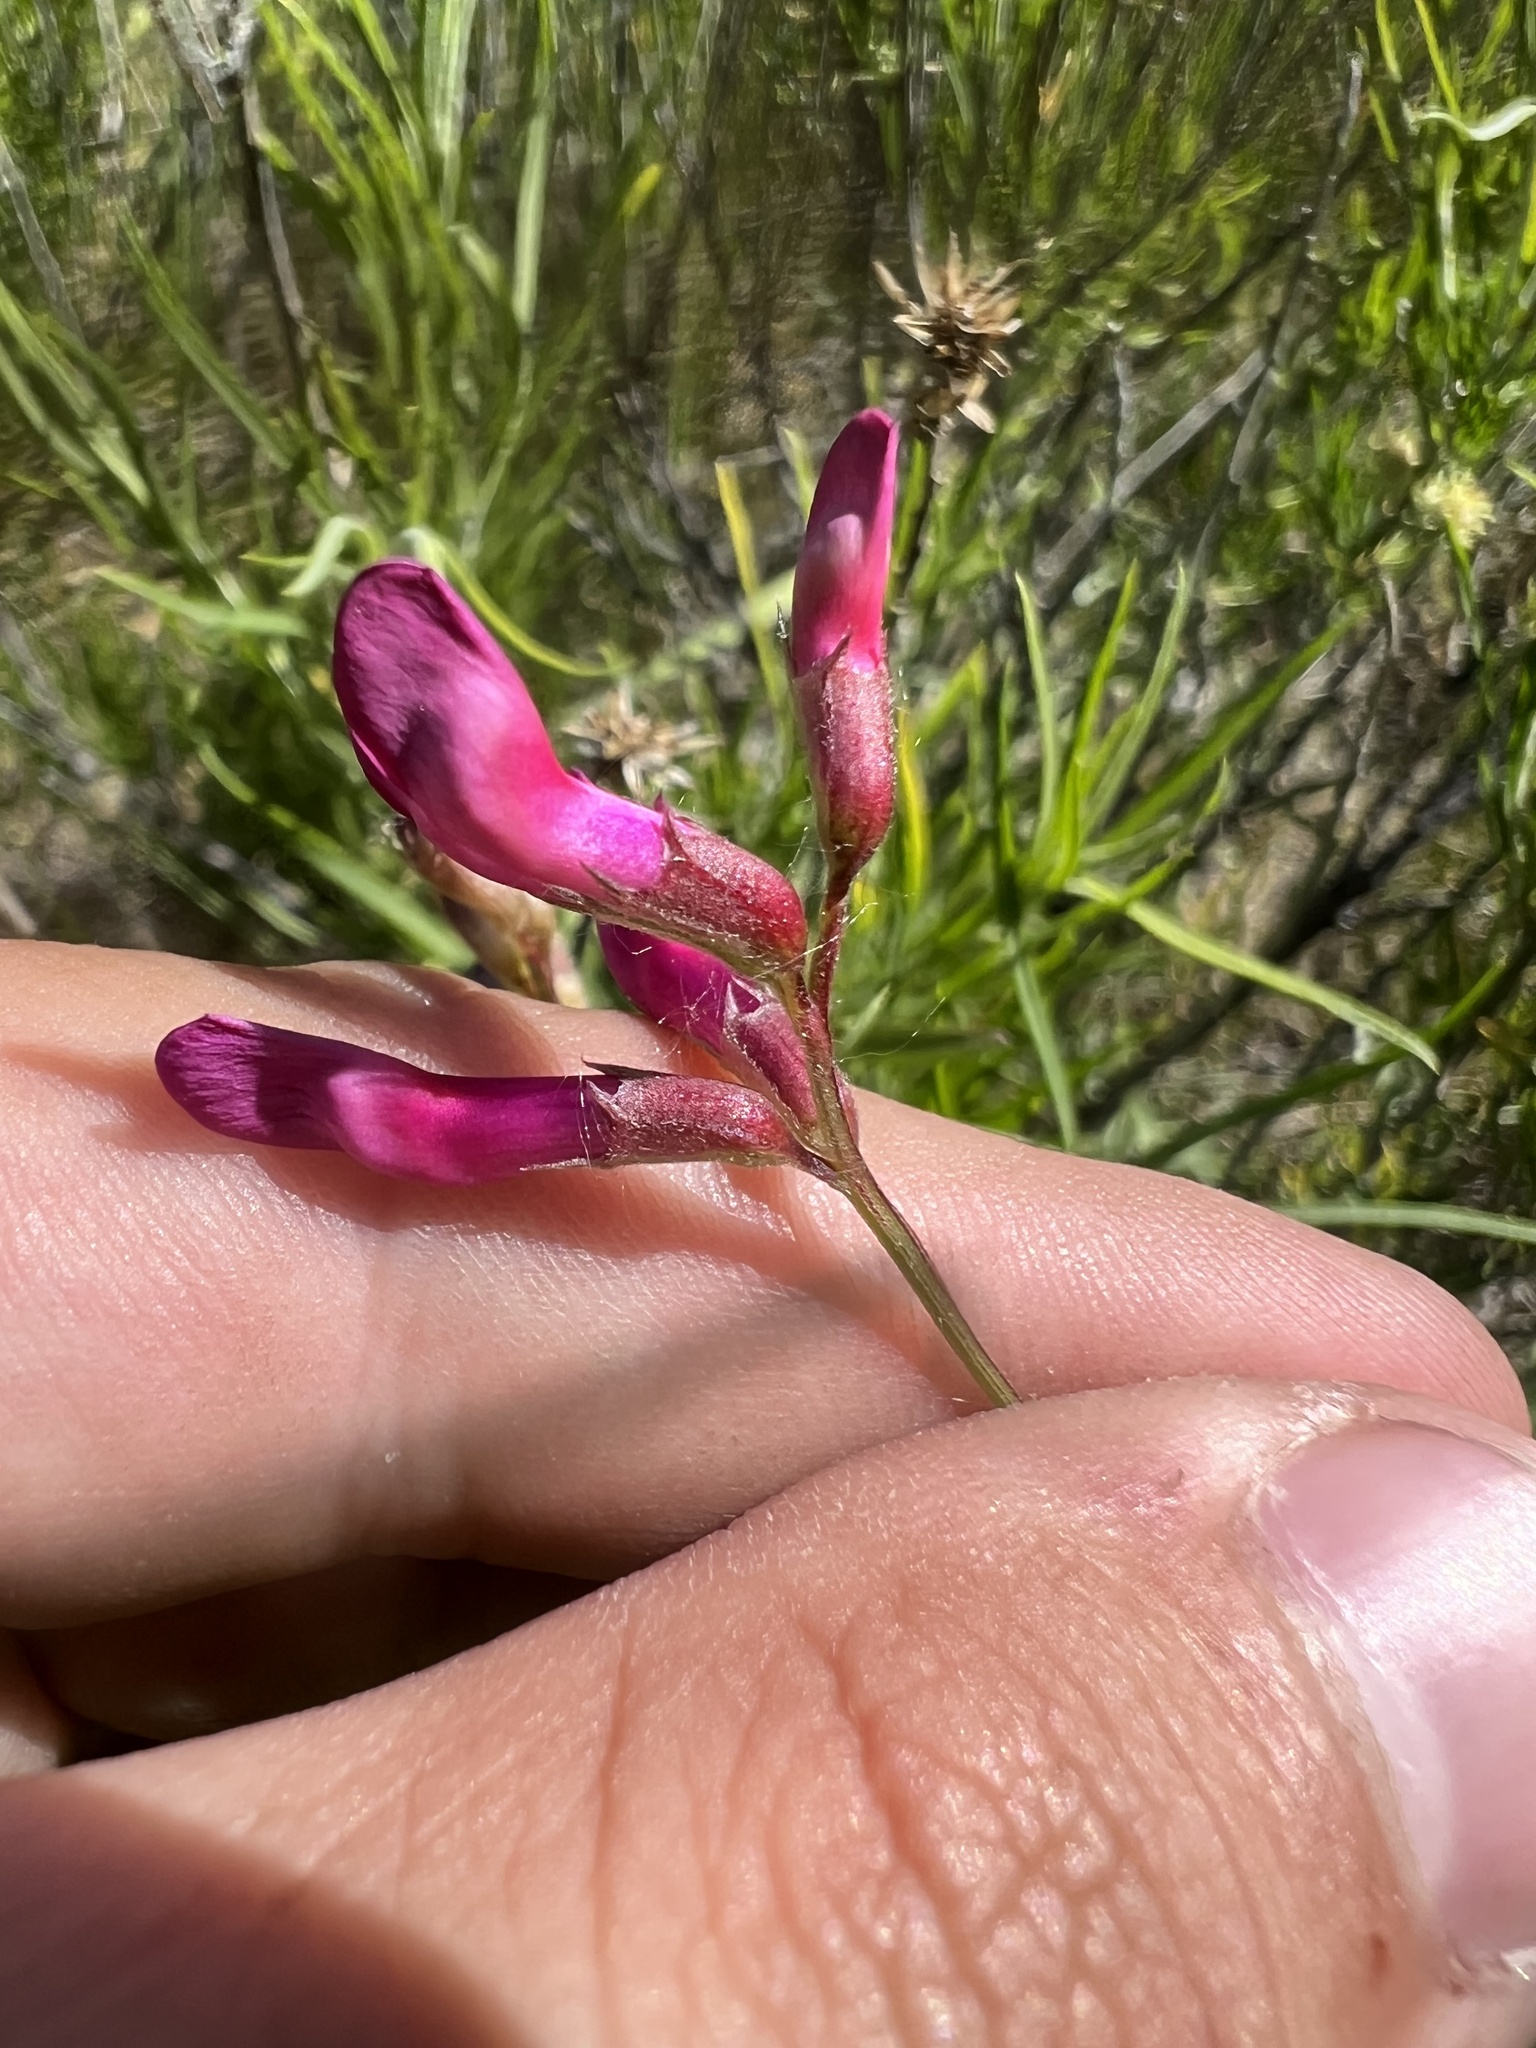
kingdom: Plantae
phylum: Tracheophyta
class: Magnoliopsida
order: Fabales
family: Fabaceae
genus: Vicia
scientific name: Vicia americana
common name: American vetch
